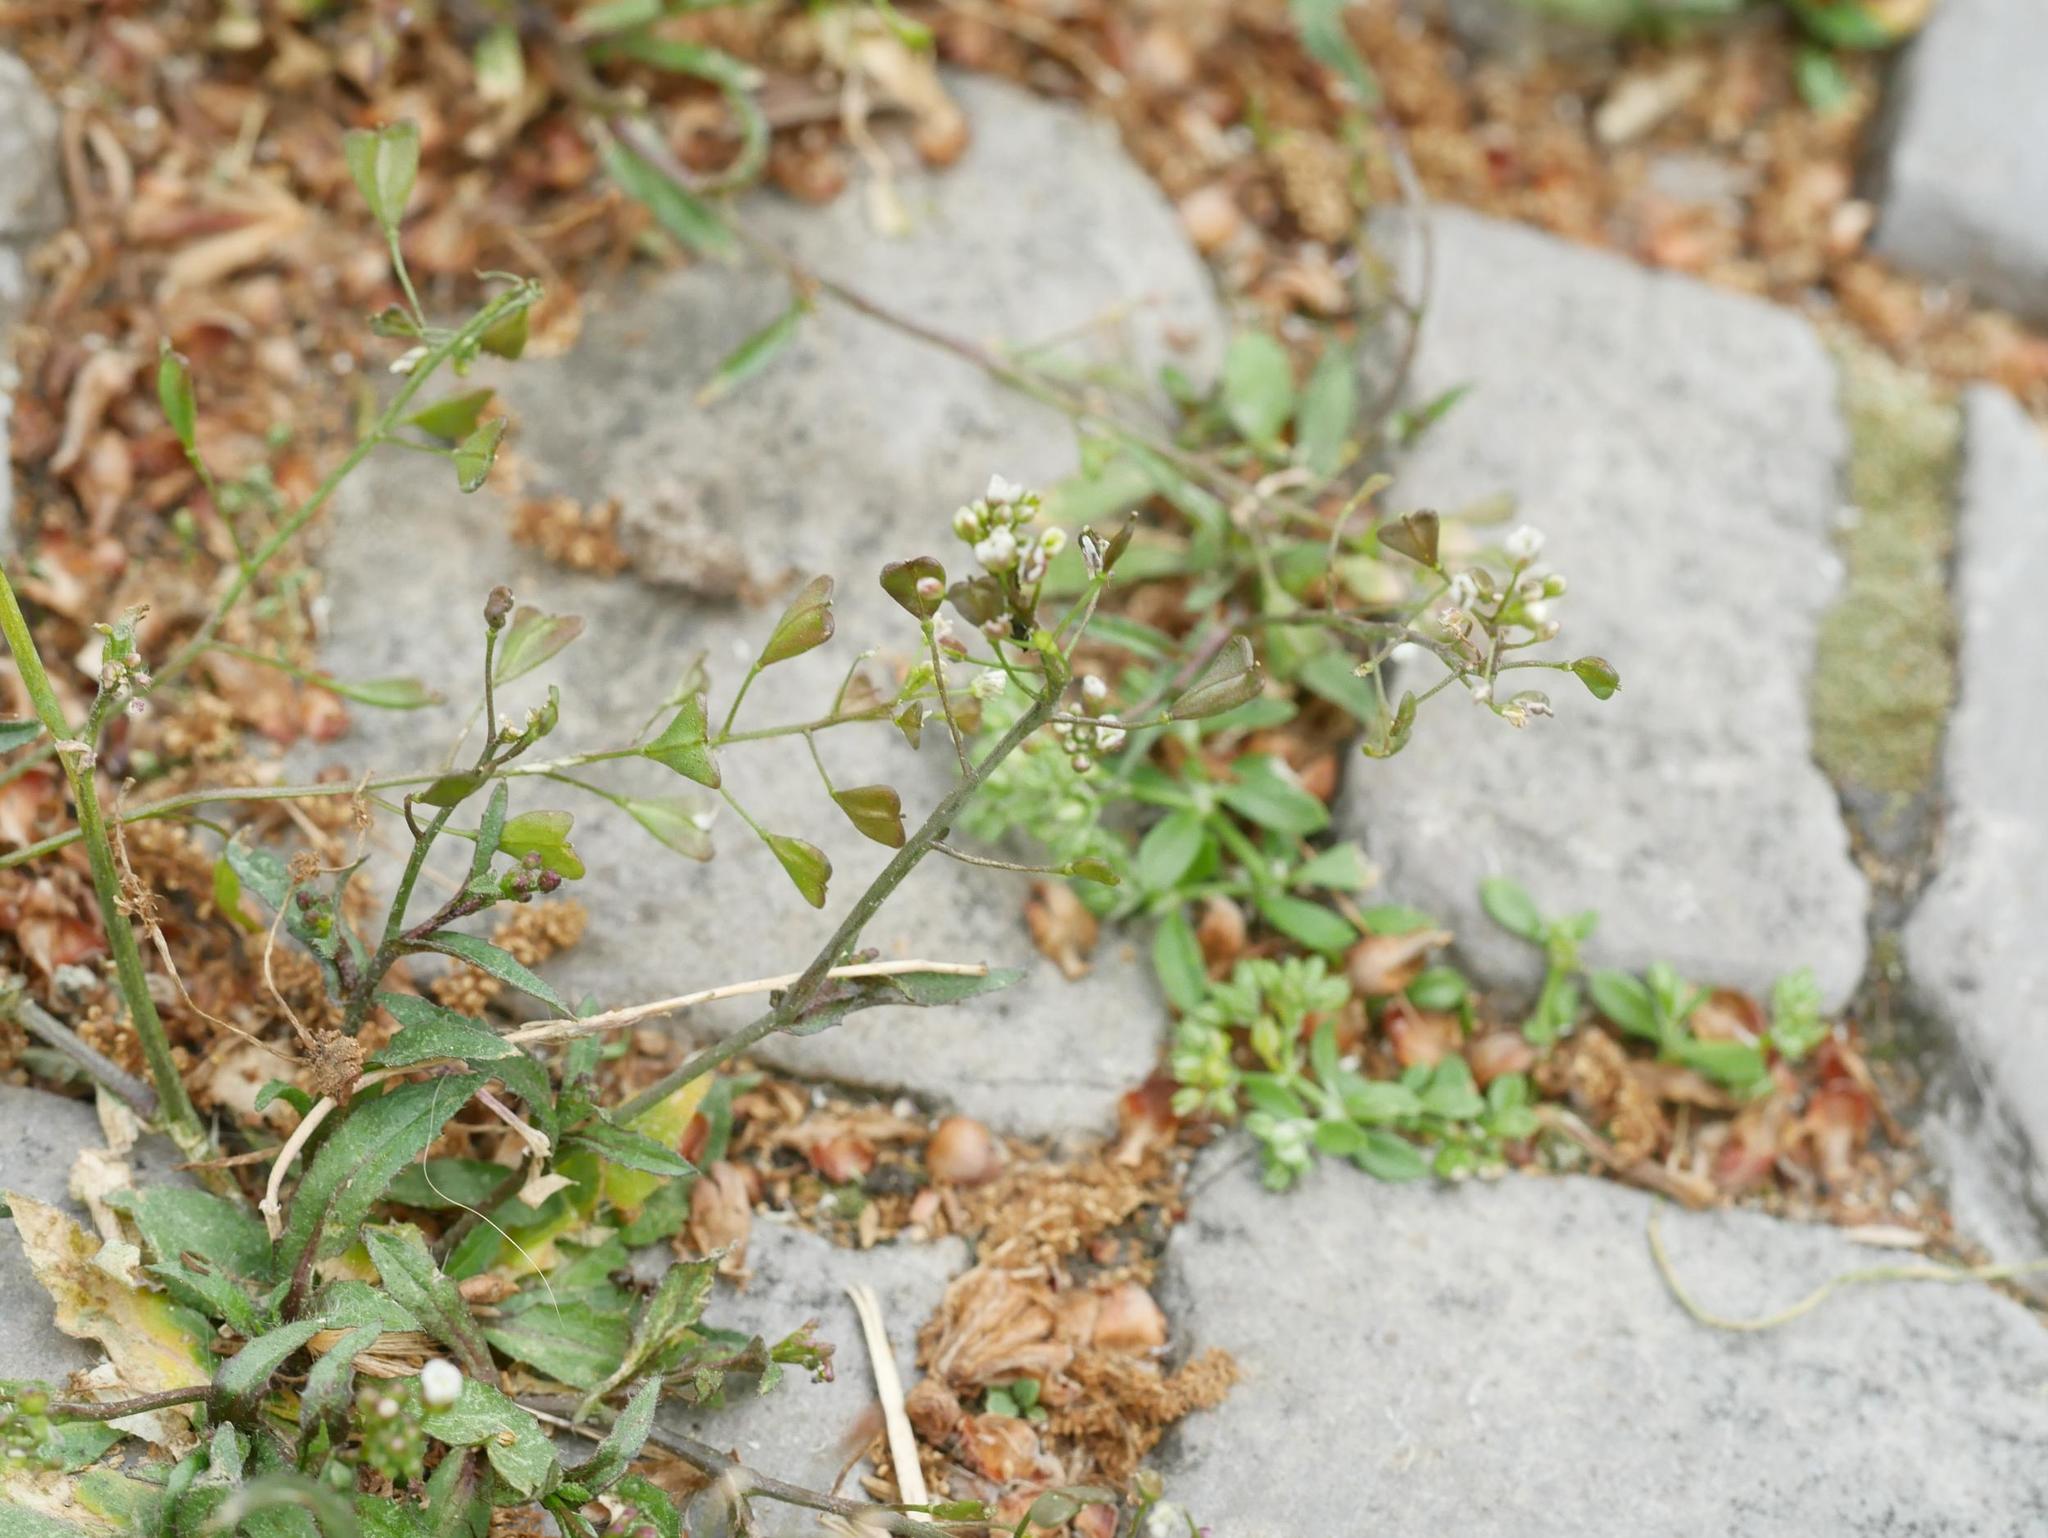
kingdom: Plantae
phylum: Tracheophyta
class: Magnoliopsida
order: Brassicales
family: Brassicaceae
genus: Capsella
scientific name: Capsella bursa-pastoris
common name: Shepherd's purse
